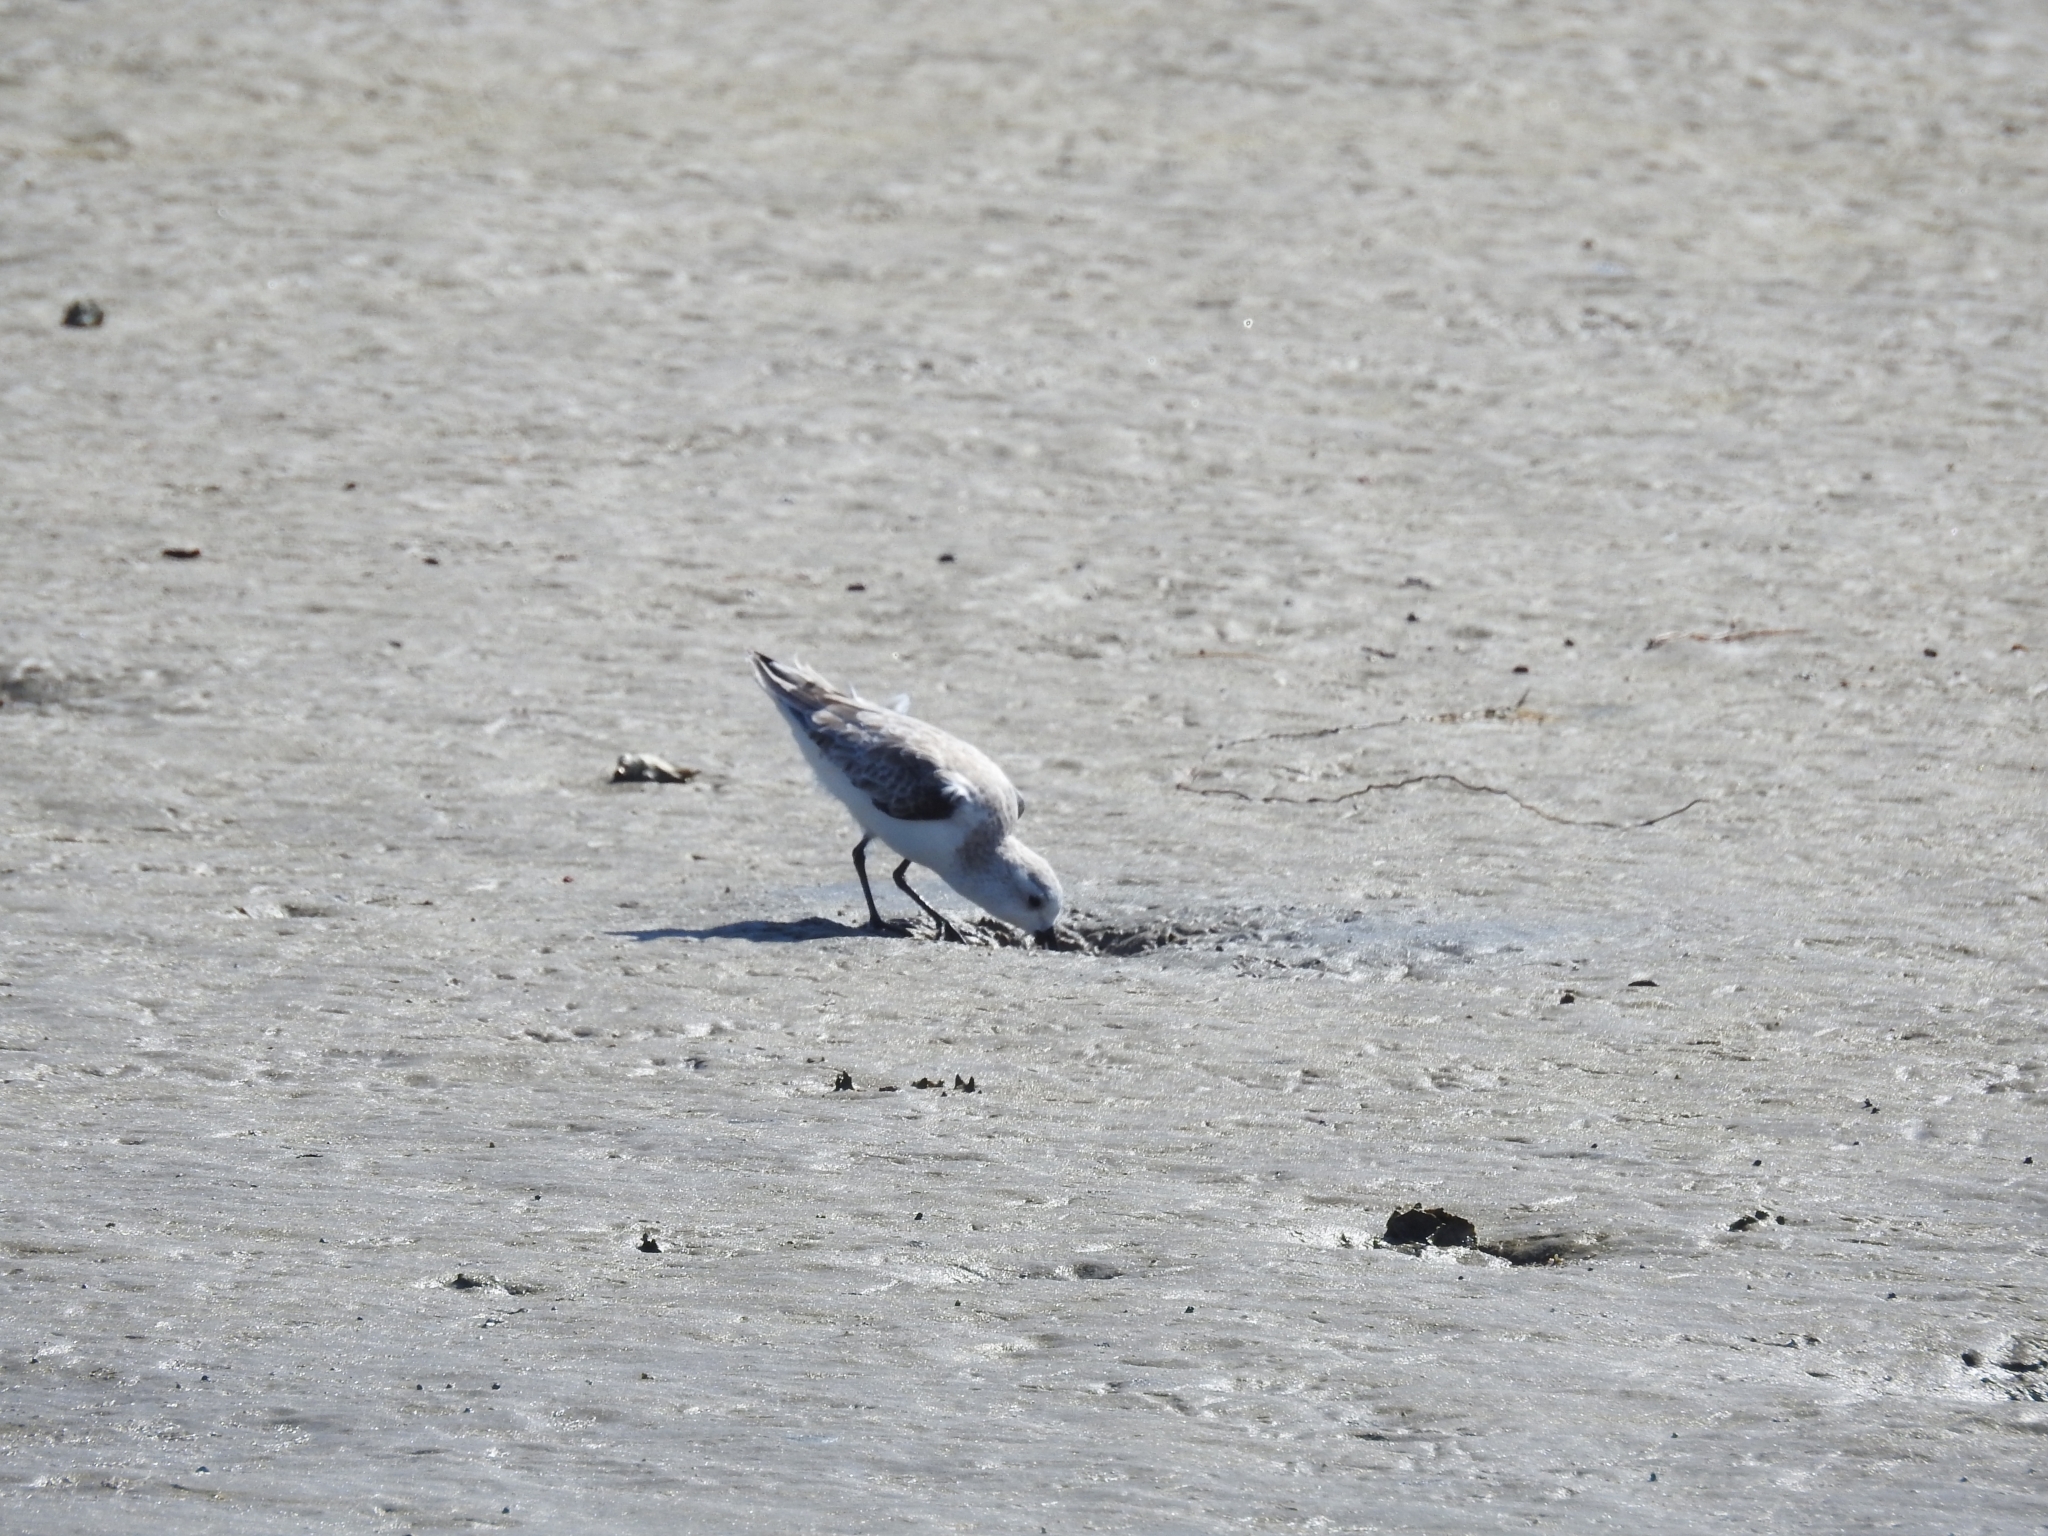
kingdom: Animalia
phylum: Chordata
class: Aves
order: Charadriiformes
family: Scolopacidae
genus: Calidris
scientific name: Calidris alba
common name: Sanderling
